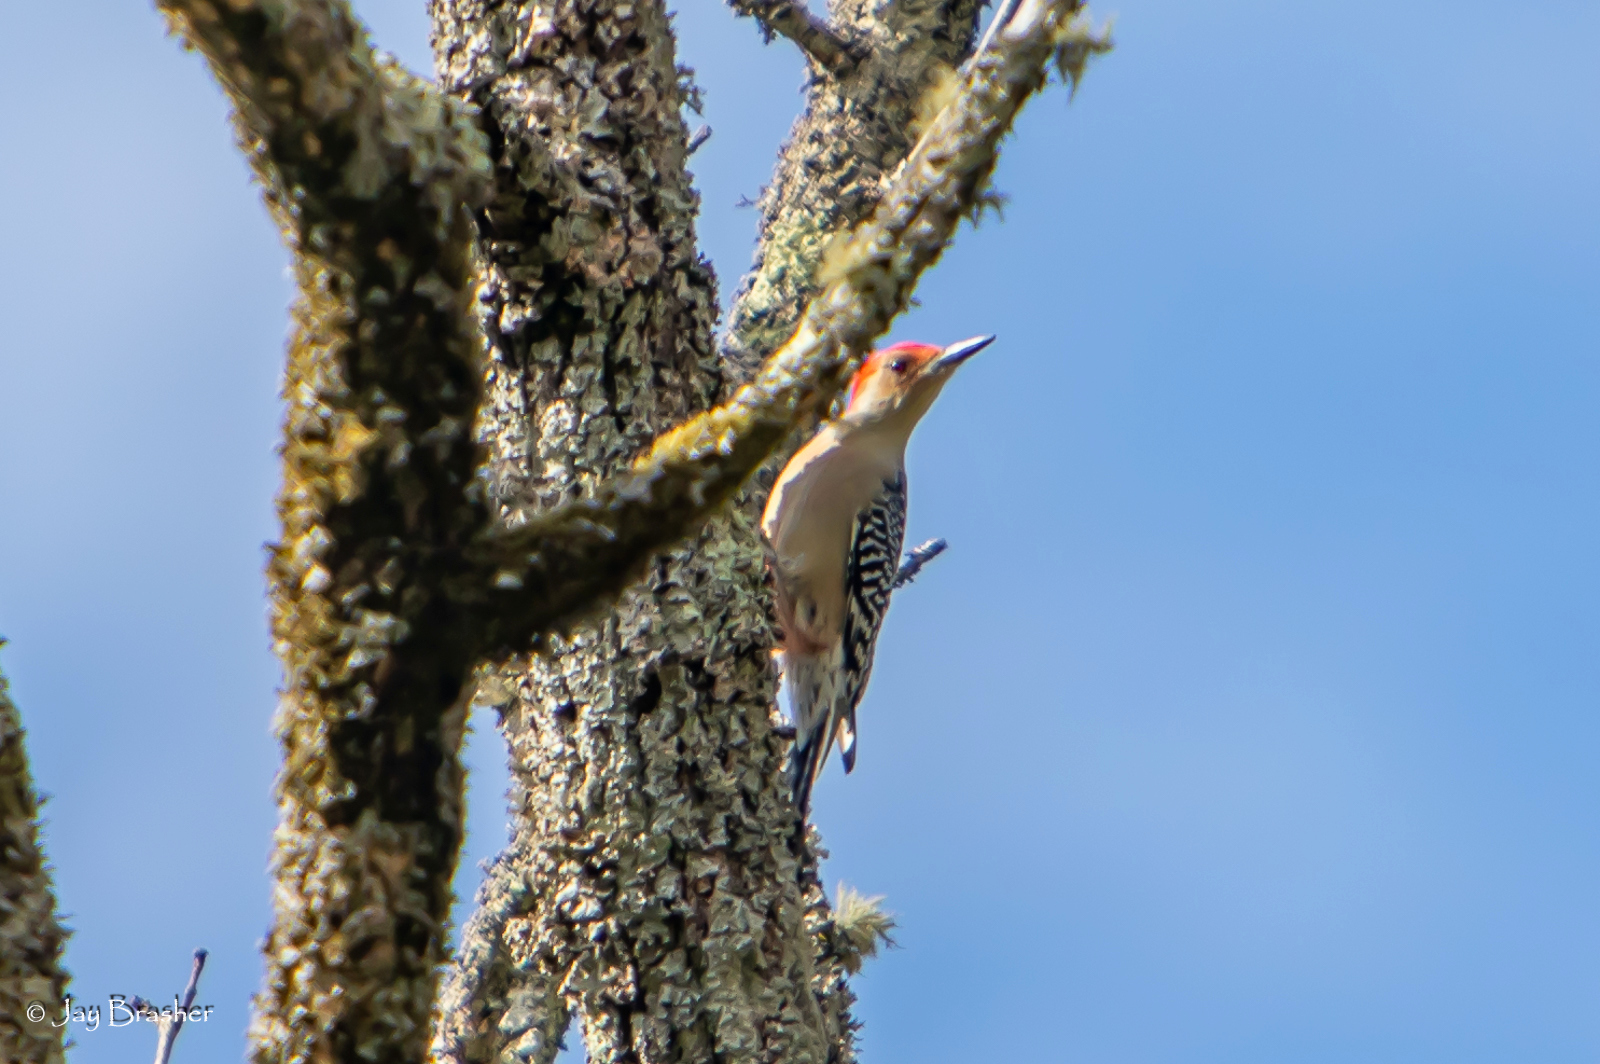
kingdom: Animalia
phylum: Chordata
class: Aves
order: Piciformes
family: Picidae
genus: Melanerpes
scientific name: Melanerpes carolinus
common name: Red-bellied woodpecker
